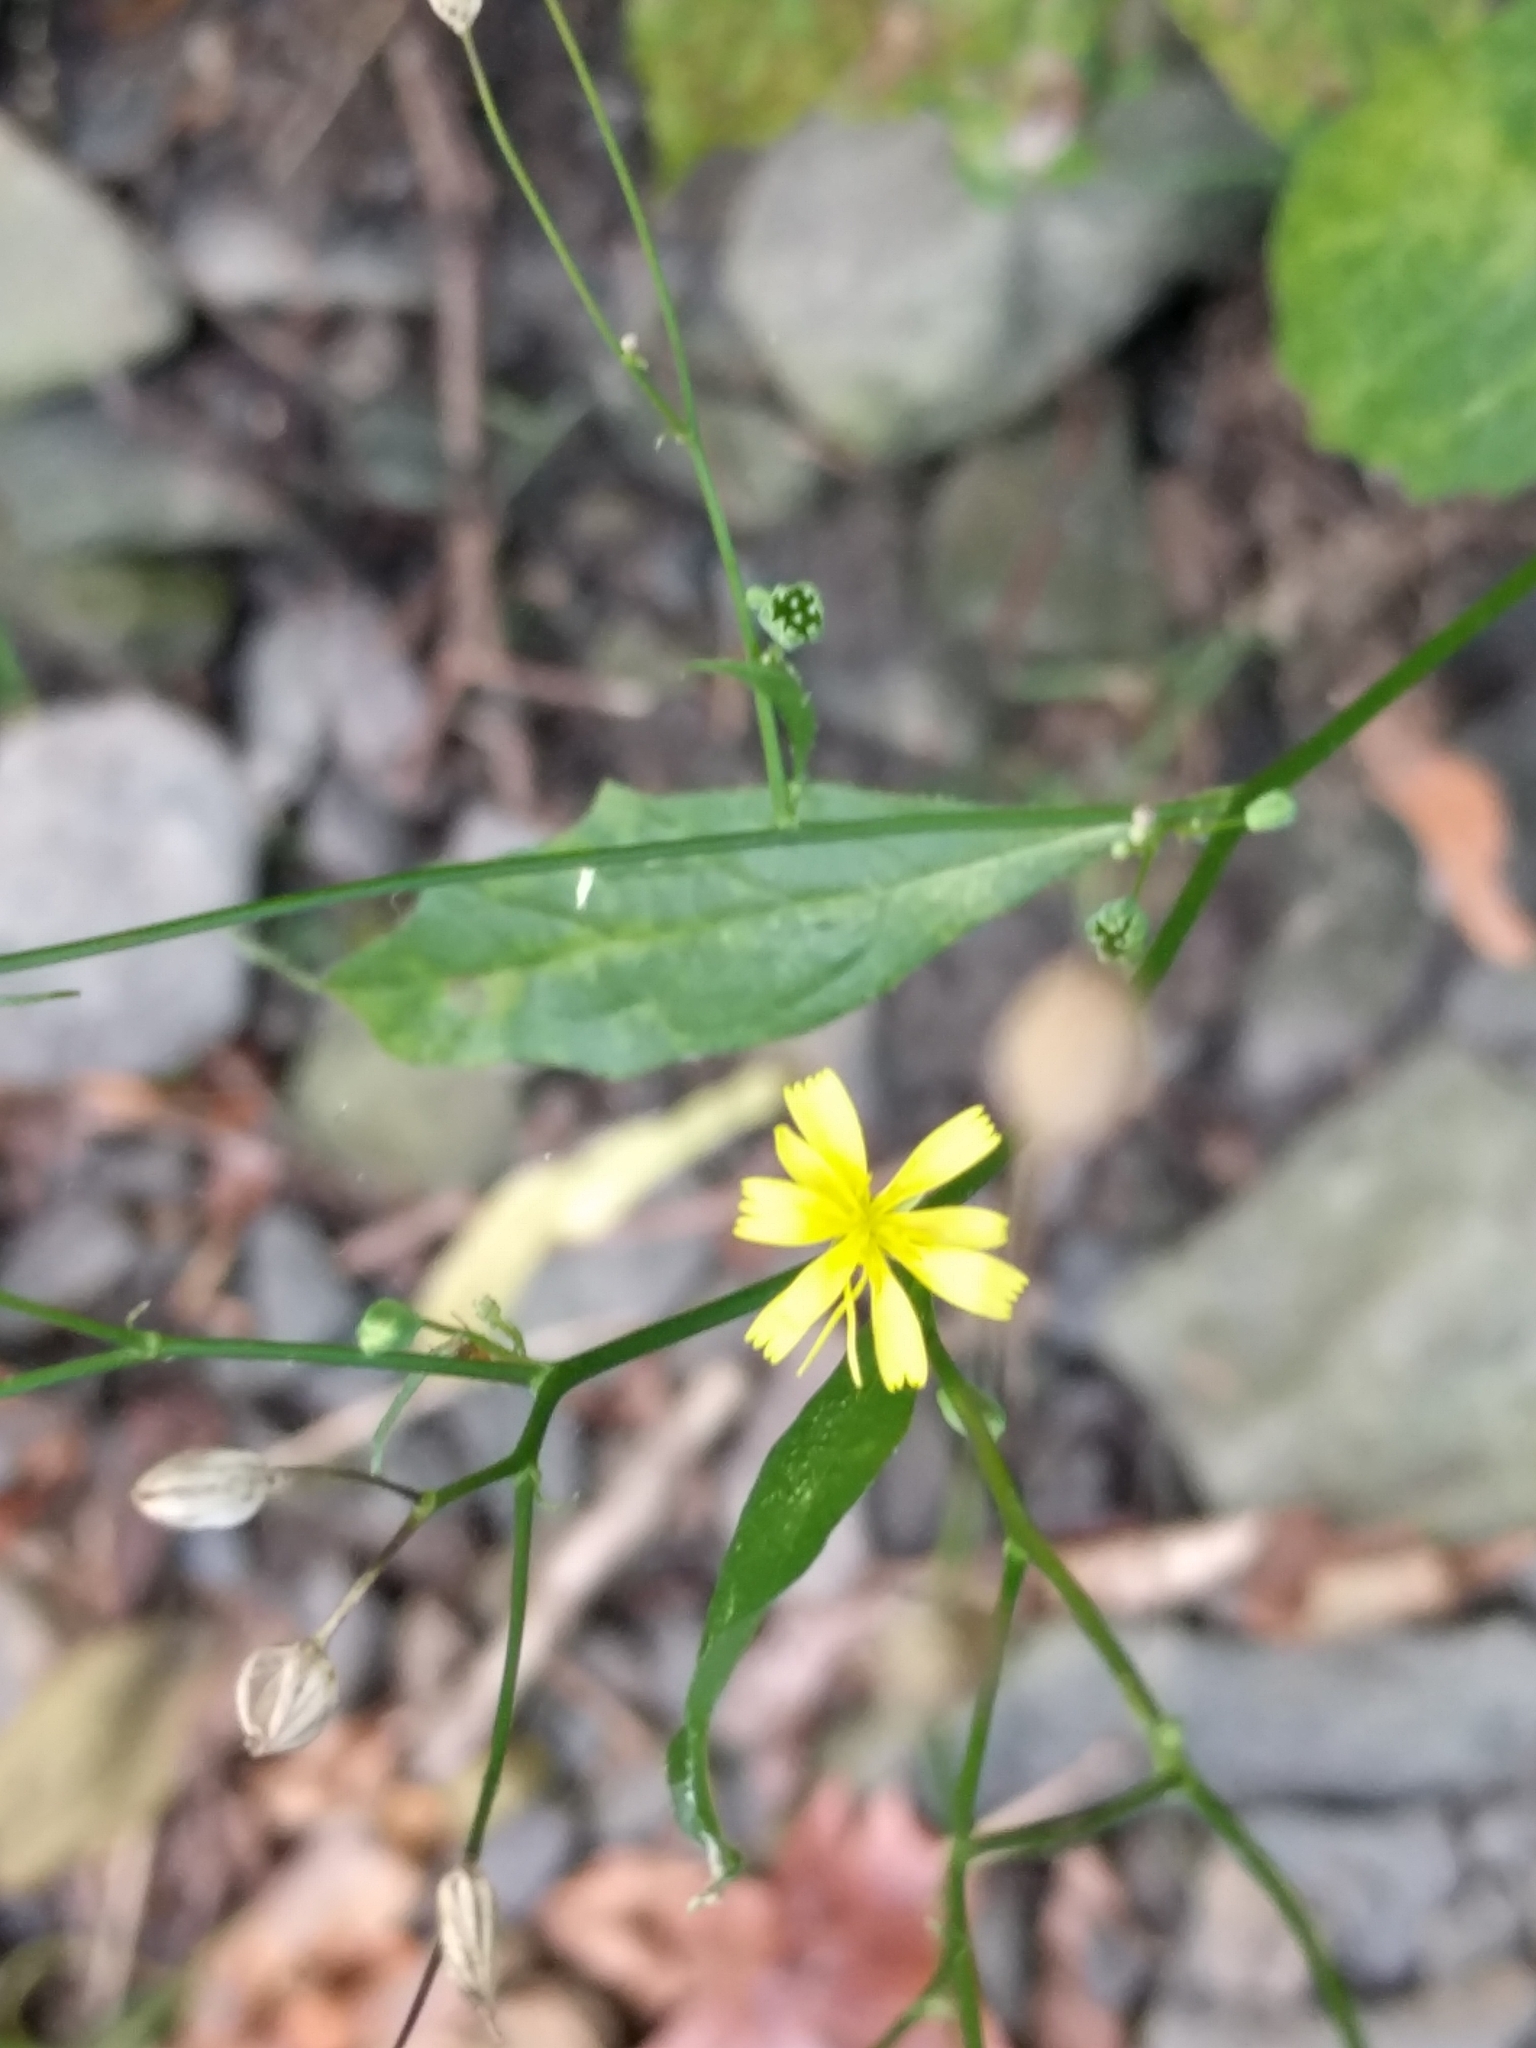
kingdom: Plantae
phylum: Tracheophyta
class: Magnoliopsida
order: Asterales
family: Asteraceae
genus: Lapsana
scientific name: Lapsana communis
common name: Nipplewort
